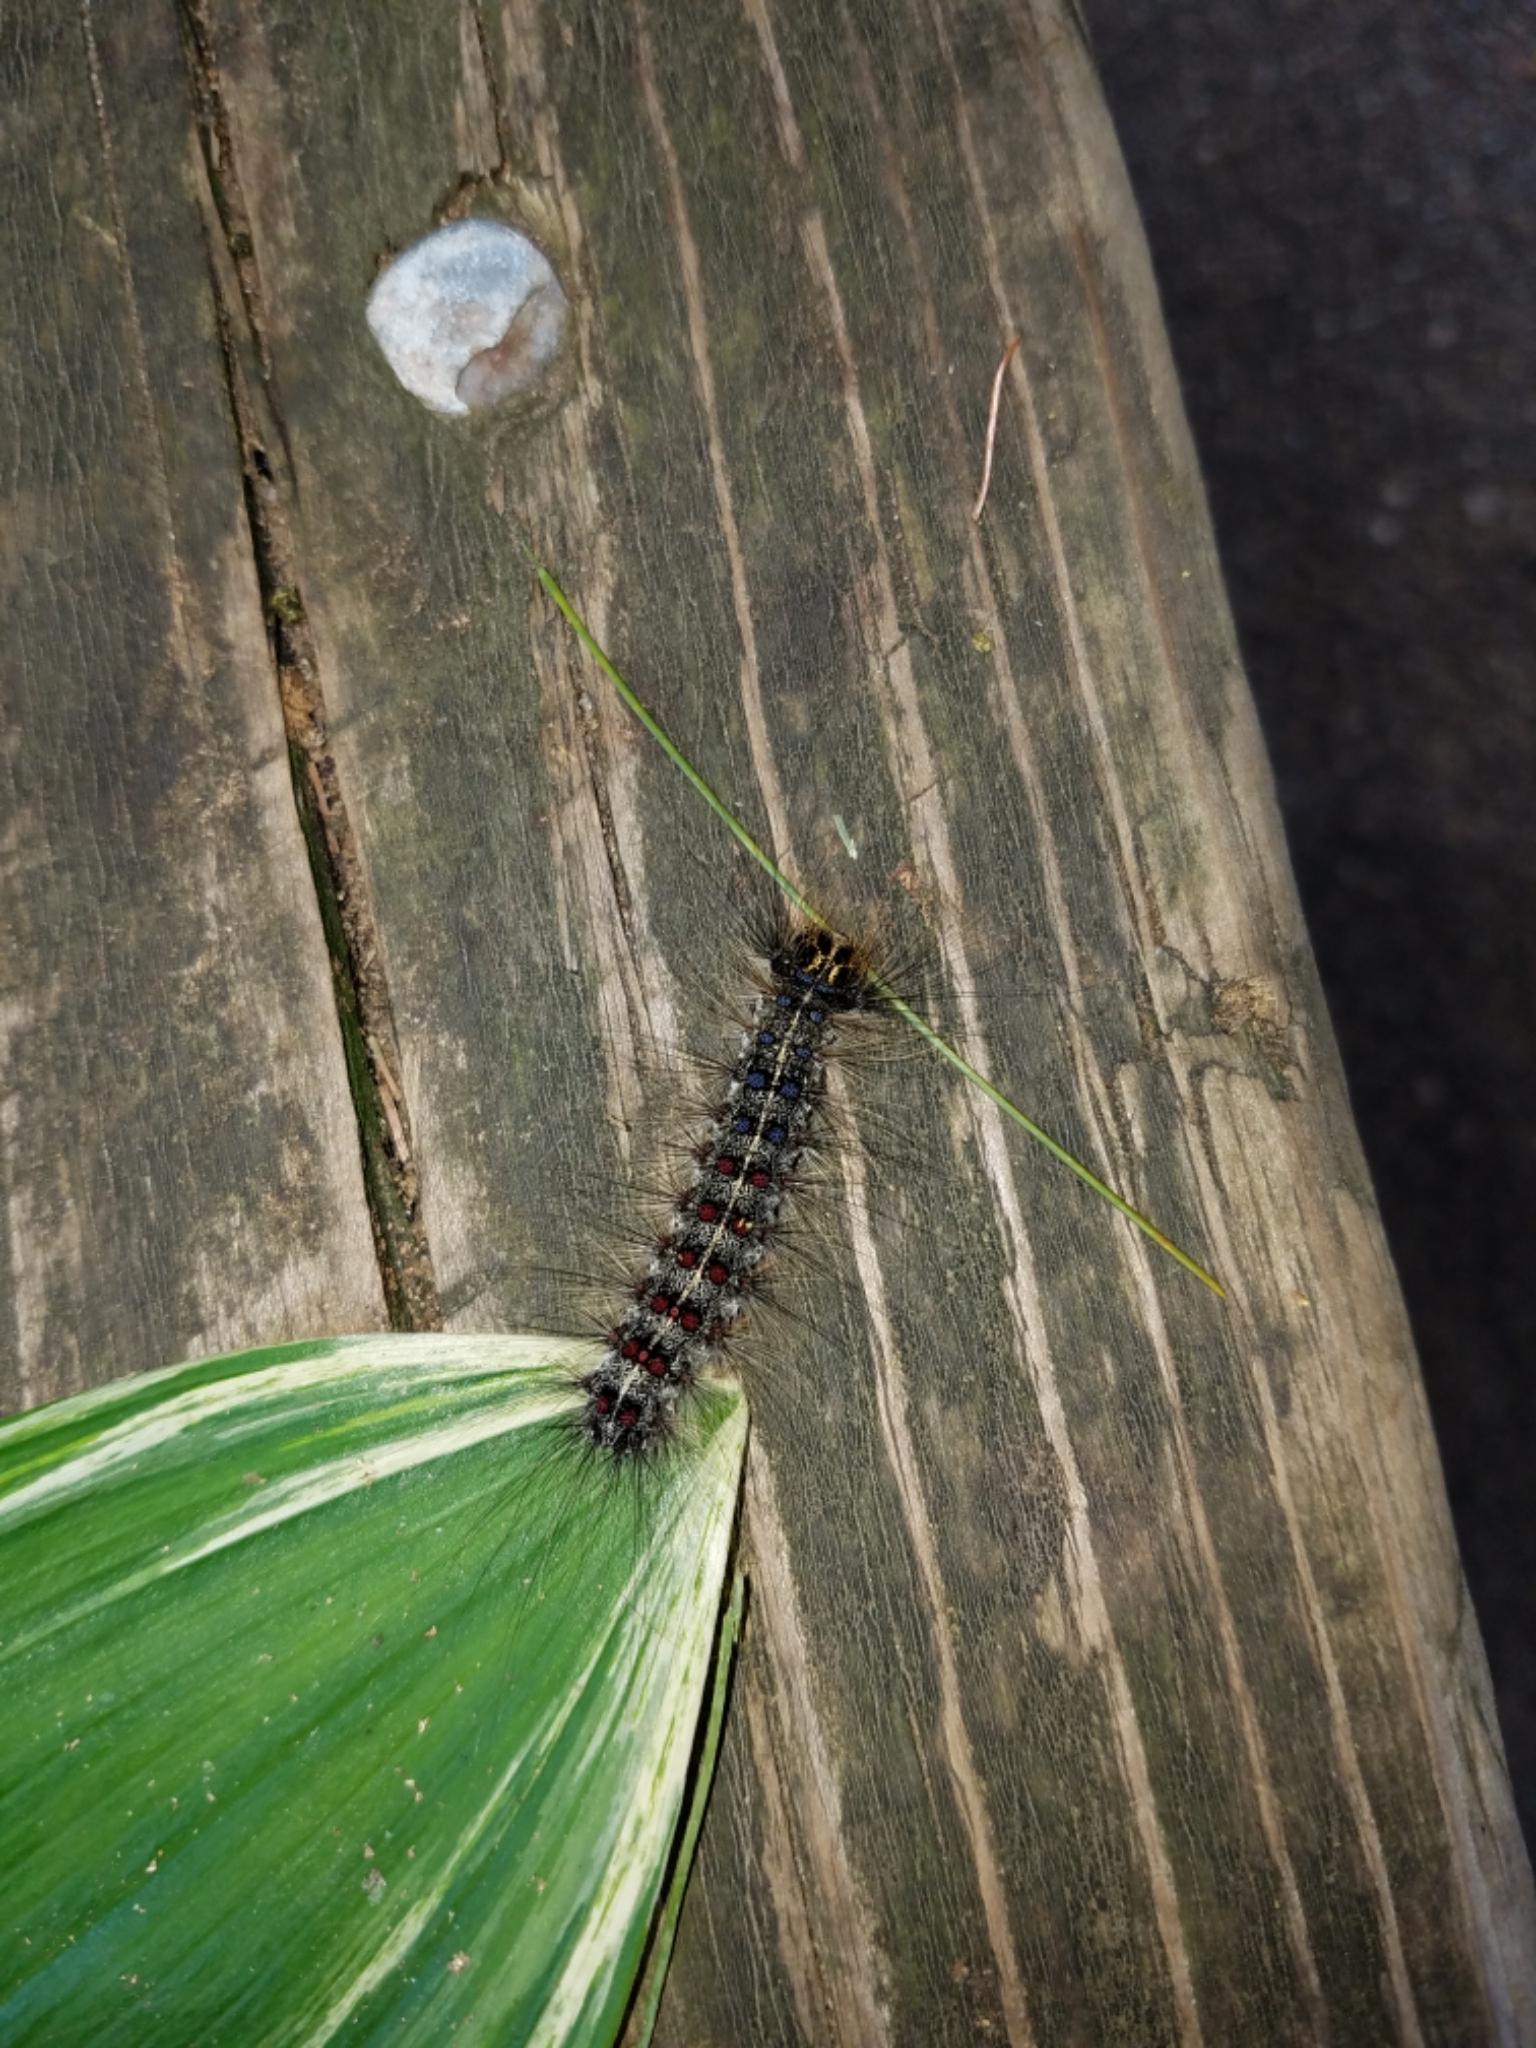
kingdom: Animalia
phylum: Arthropoda
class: Insecta
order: Lepidoptera
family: Erebidae
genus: Lymantria
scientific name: Lymantria dispar
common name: Gypsy moth
